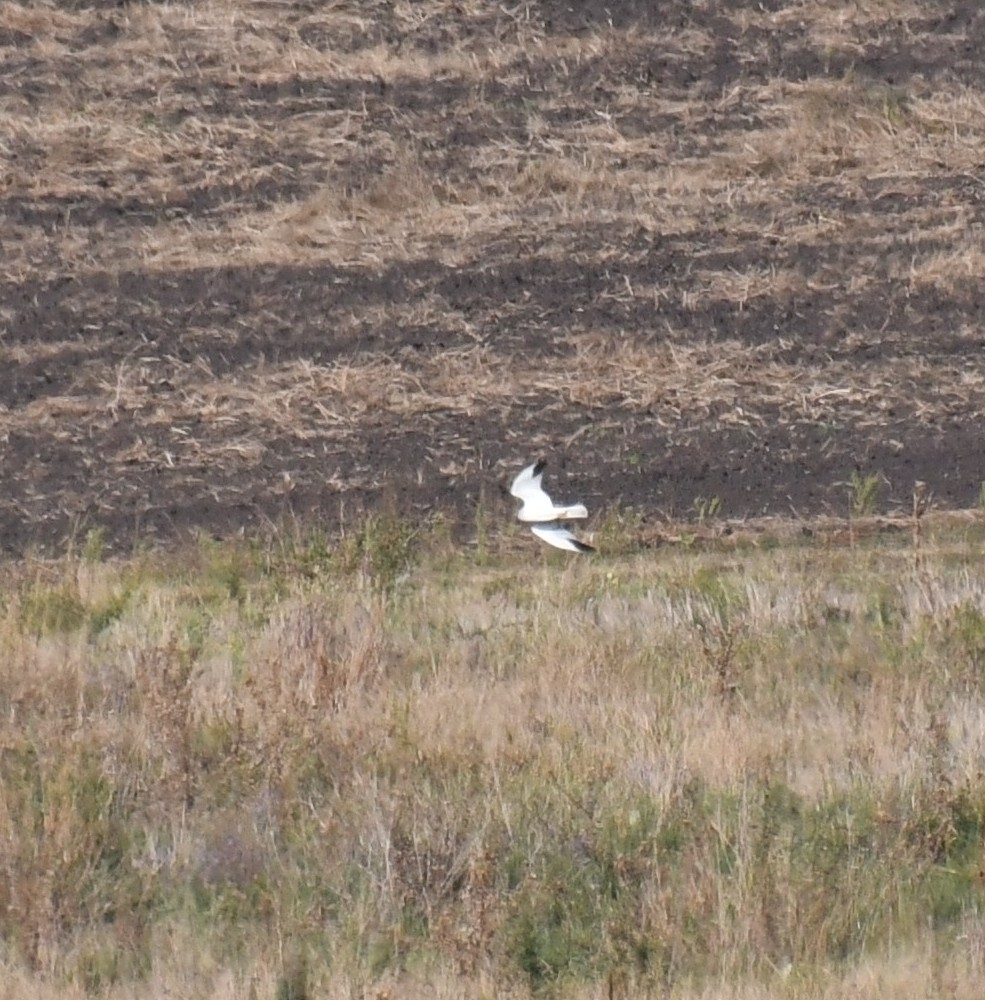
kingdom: Animalia
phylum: Chordata
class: Aves
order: Accipitriformes
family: Accipitridae
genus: Circus
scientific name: Circus macrourus
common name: Pallid harrier
